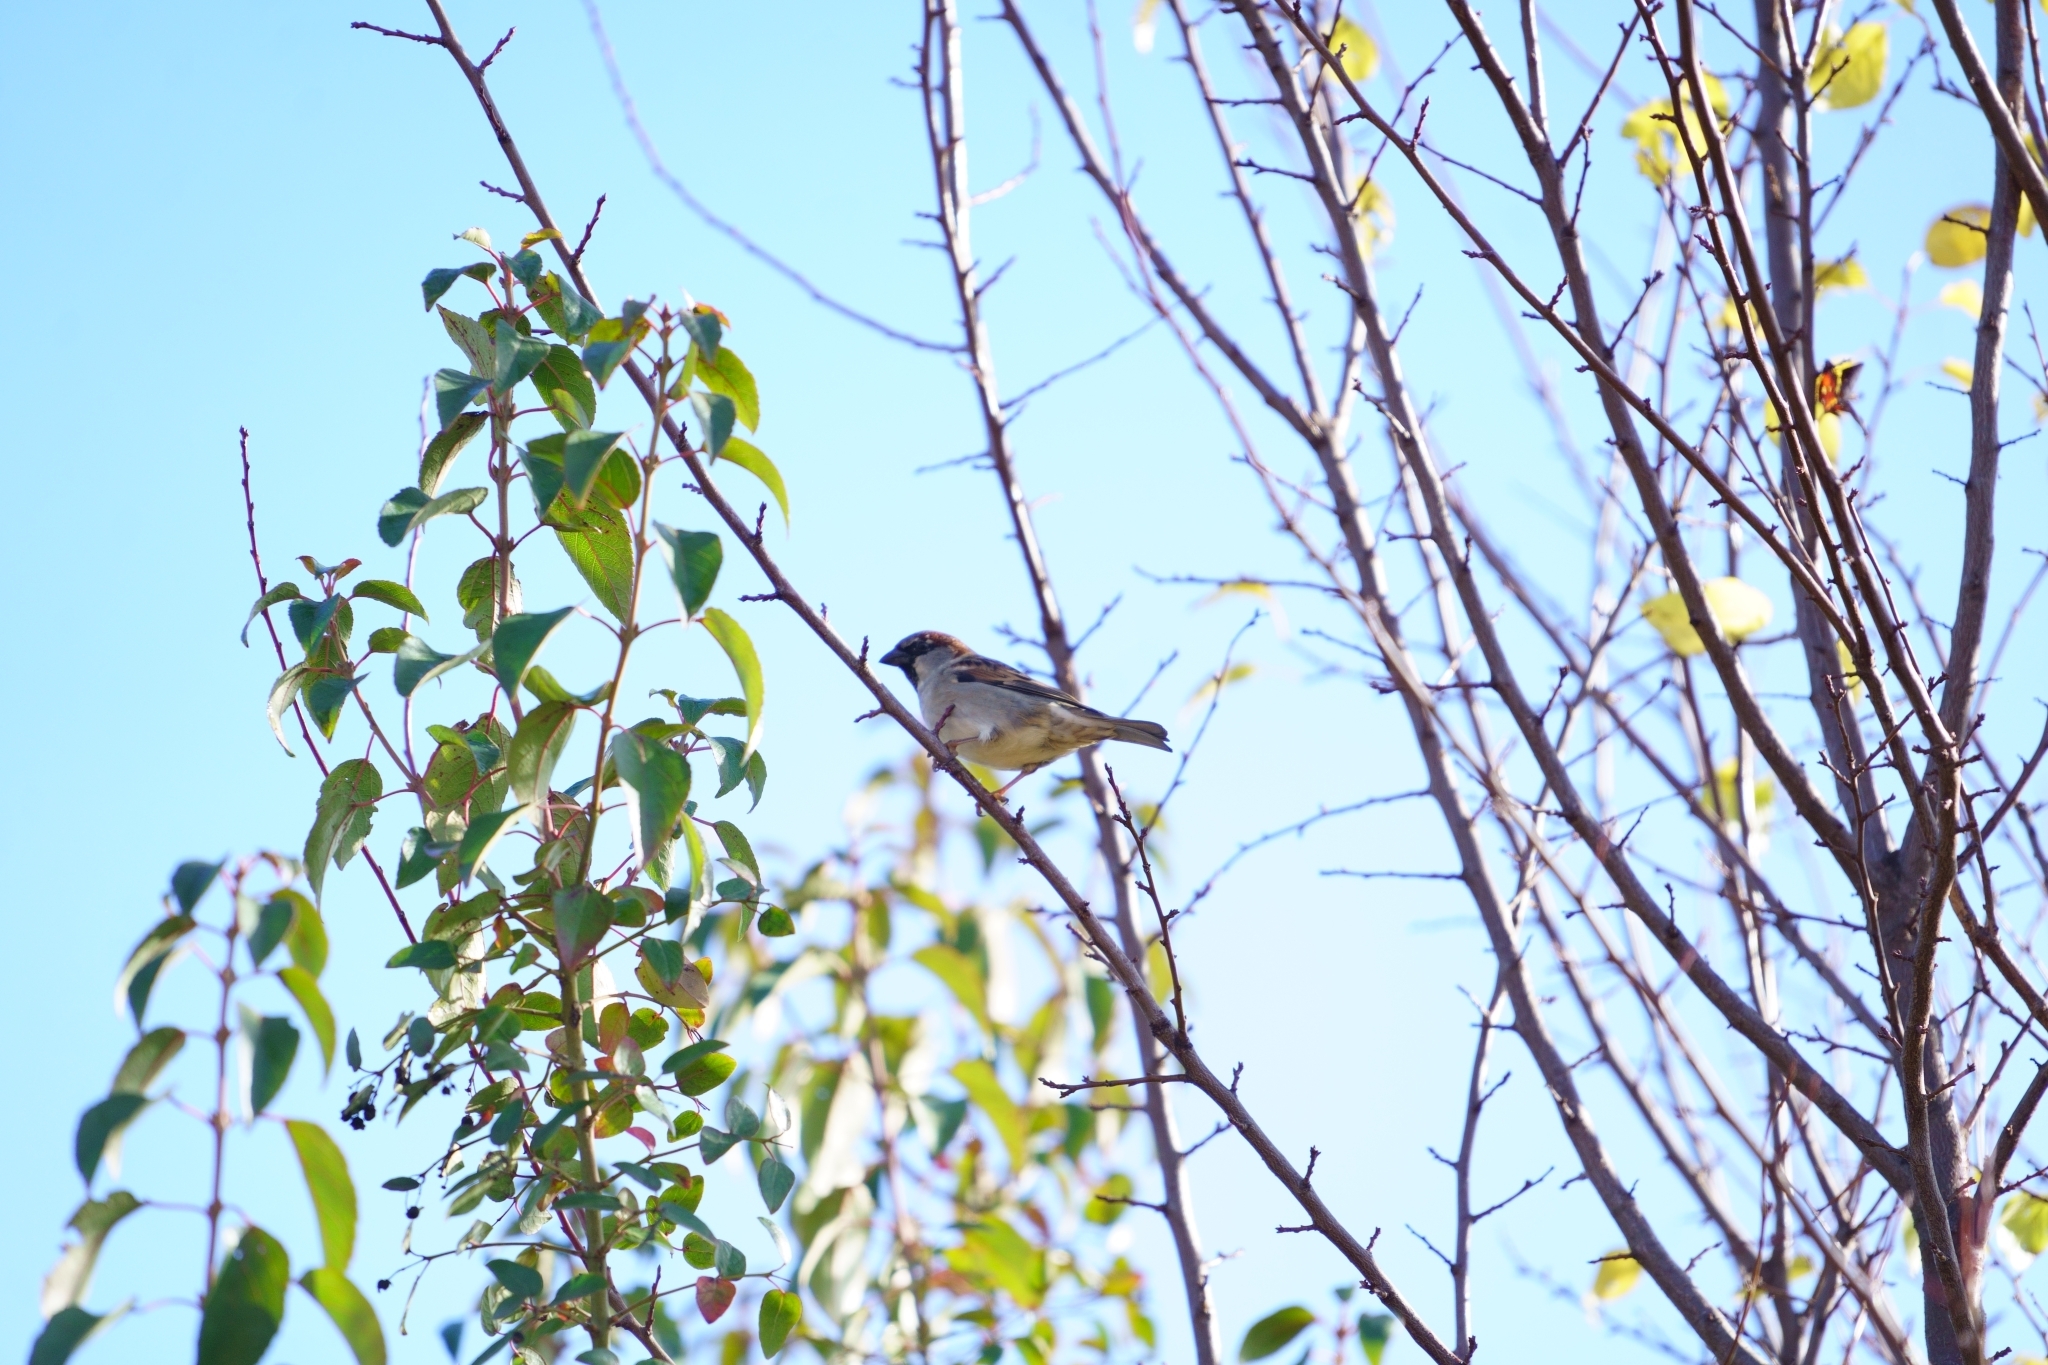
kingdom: Animalia
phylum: Chordata
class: Aves
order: Passeriformes
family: Passeridae
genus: Passer
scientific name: Passer domesticus
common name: House sparrow
